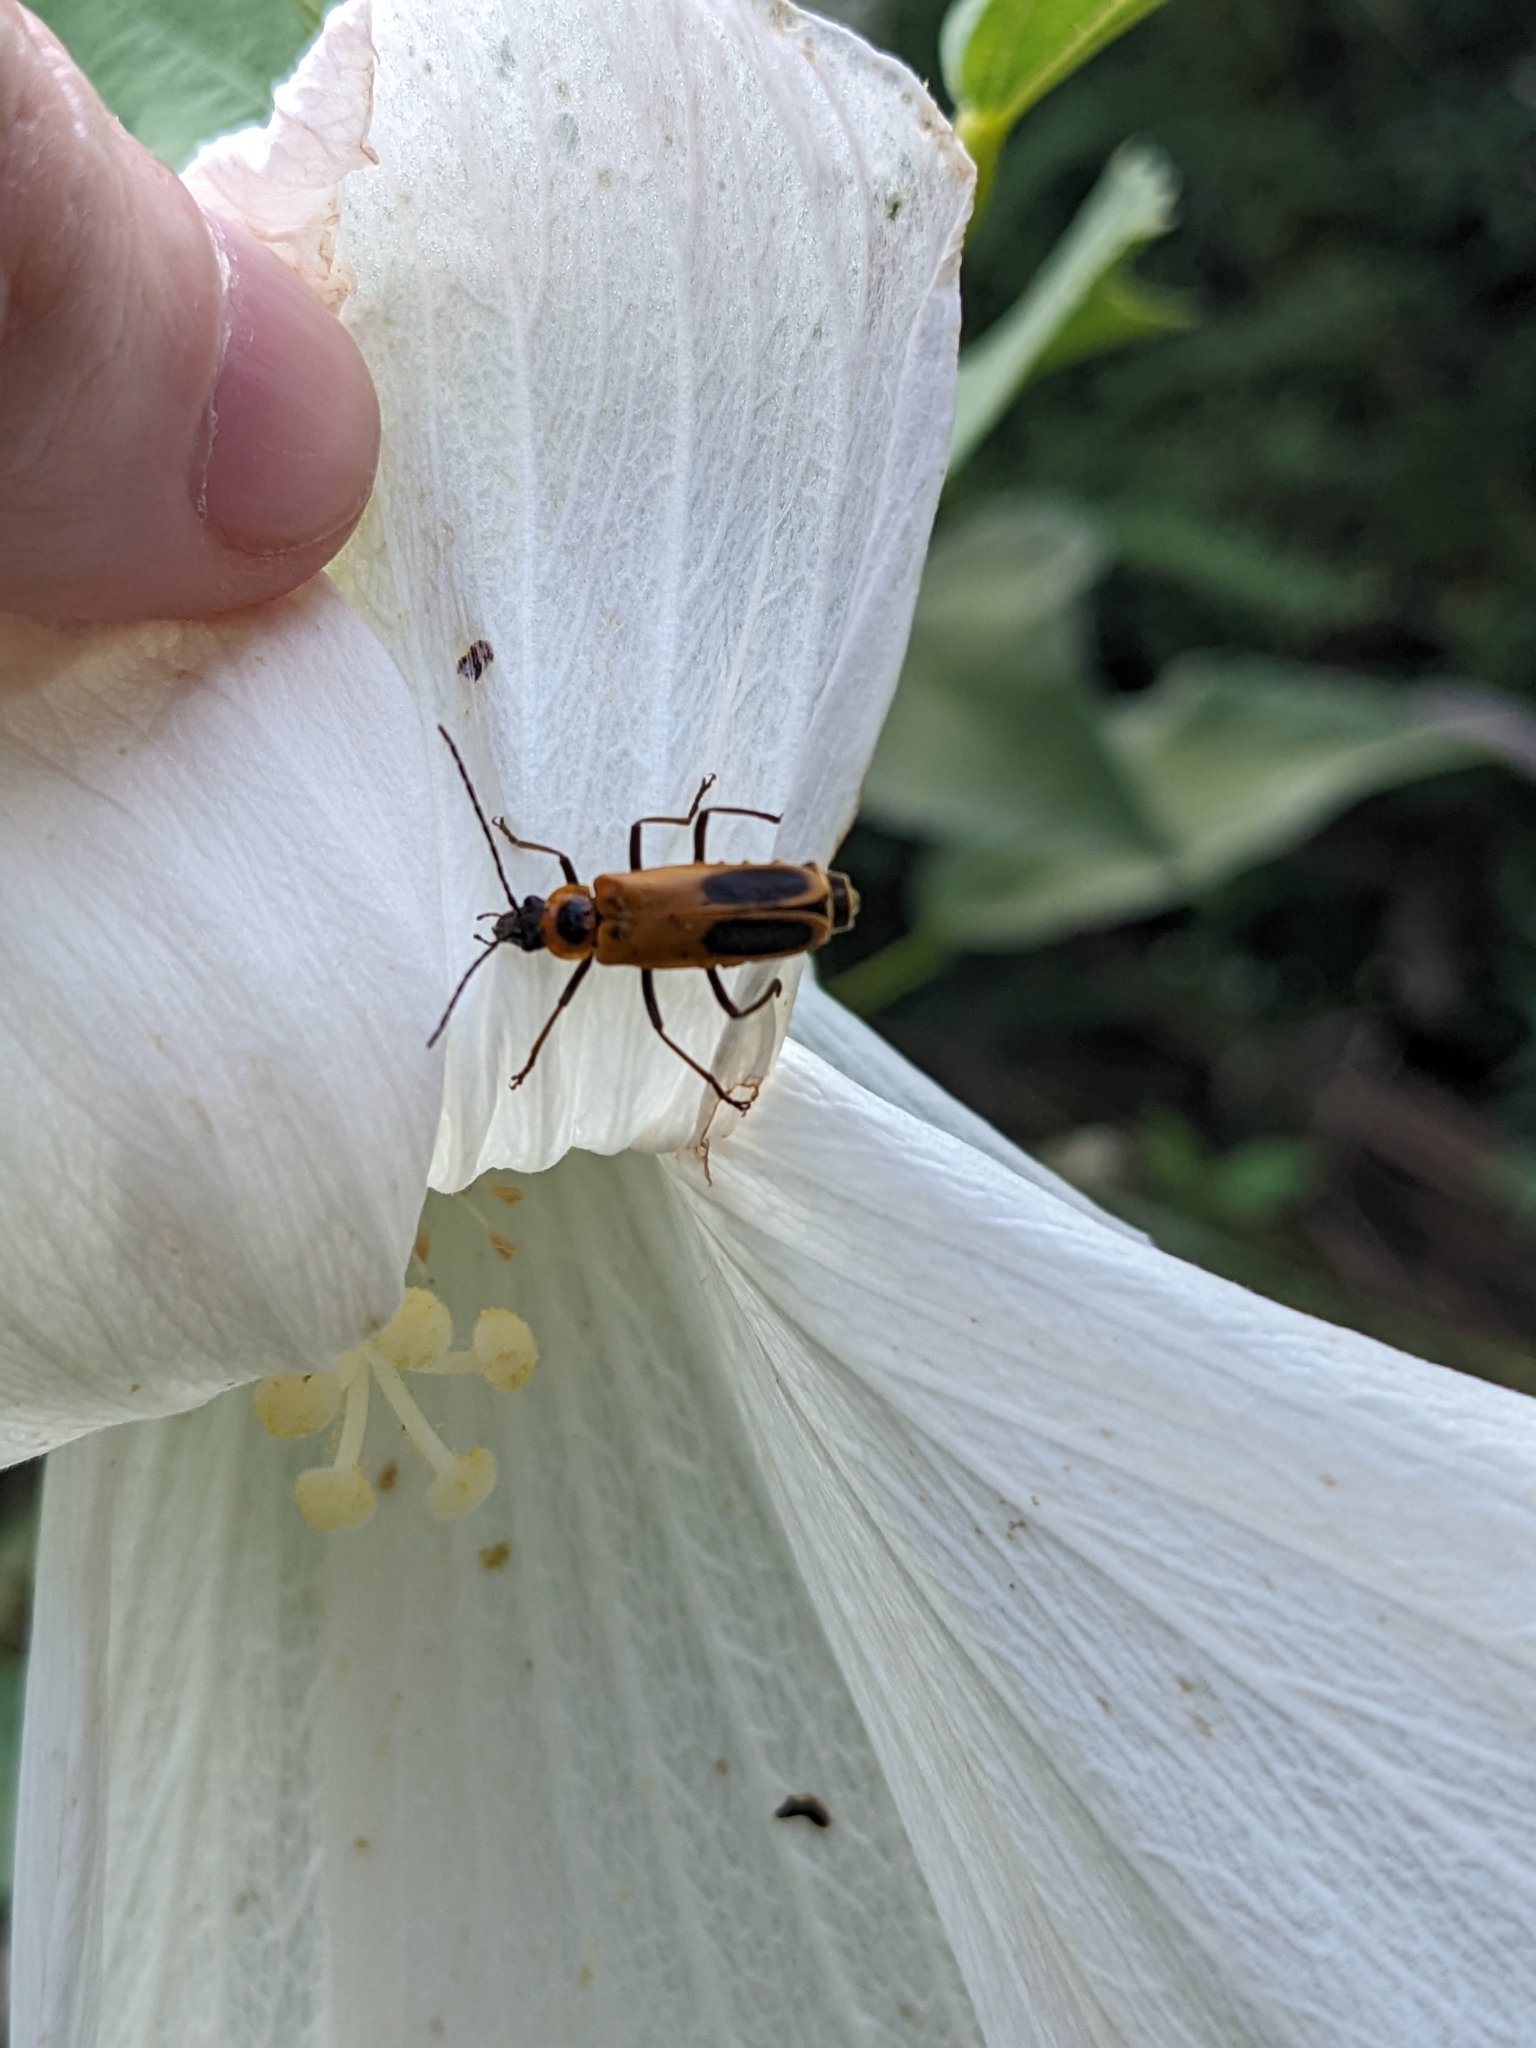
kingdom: Animalia
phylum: Arthropoda
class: Insecta
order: Coleoptera
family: Cantharidae
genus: Chauliognathus
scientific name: Chauliognathus pensylvanicus
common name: Goldenrod soldier beetle
